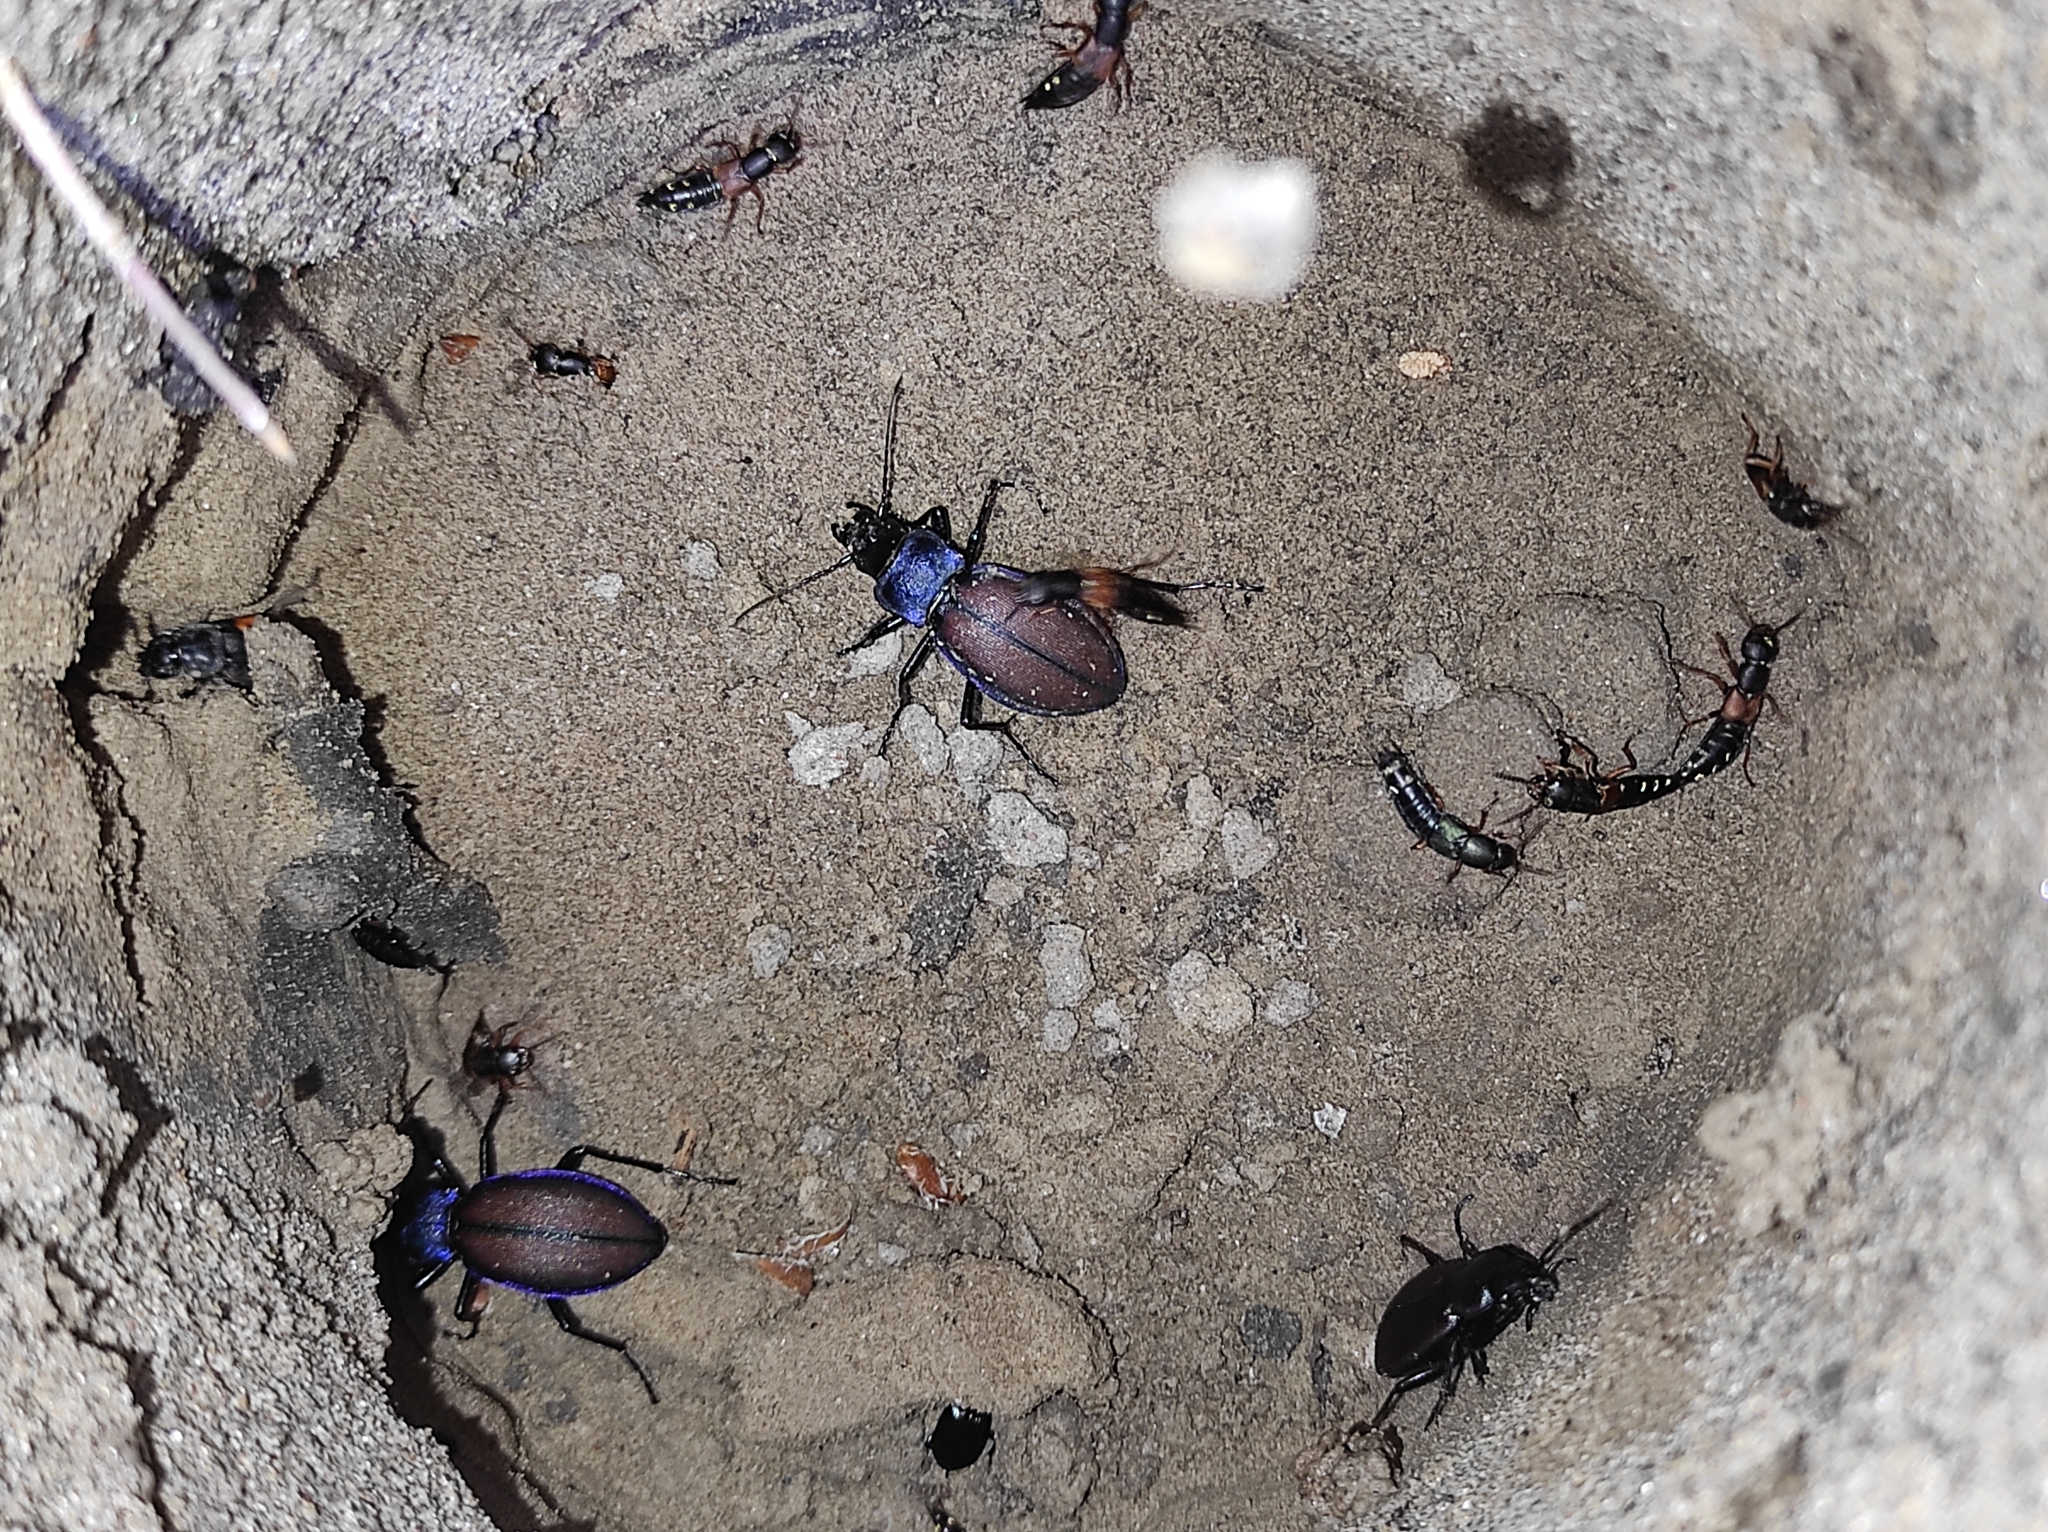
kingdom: Animalia
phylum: Arthropoda
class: Insecta
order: Coleoptera
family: Staphylinidae
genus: Staphylinus
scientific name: Staphylinus erythropterus
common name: Staph beetle
